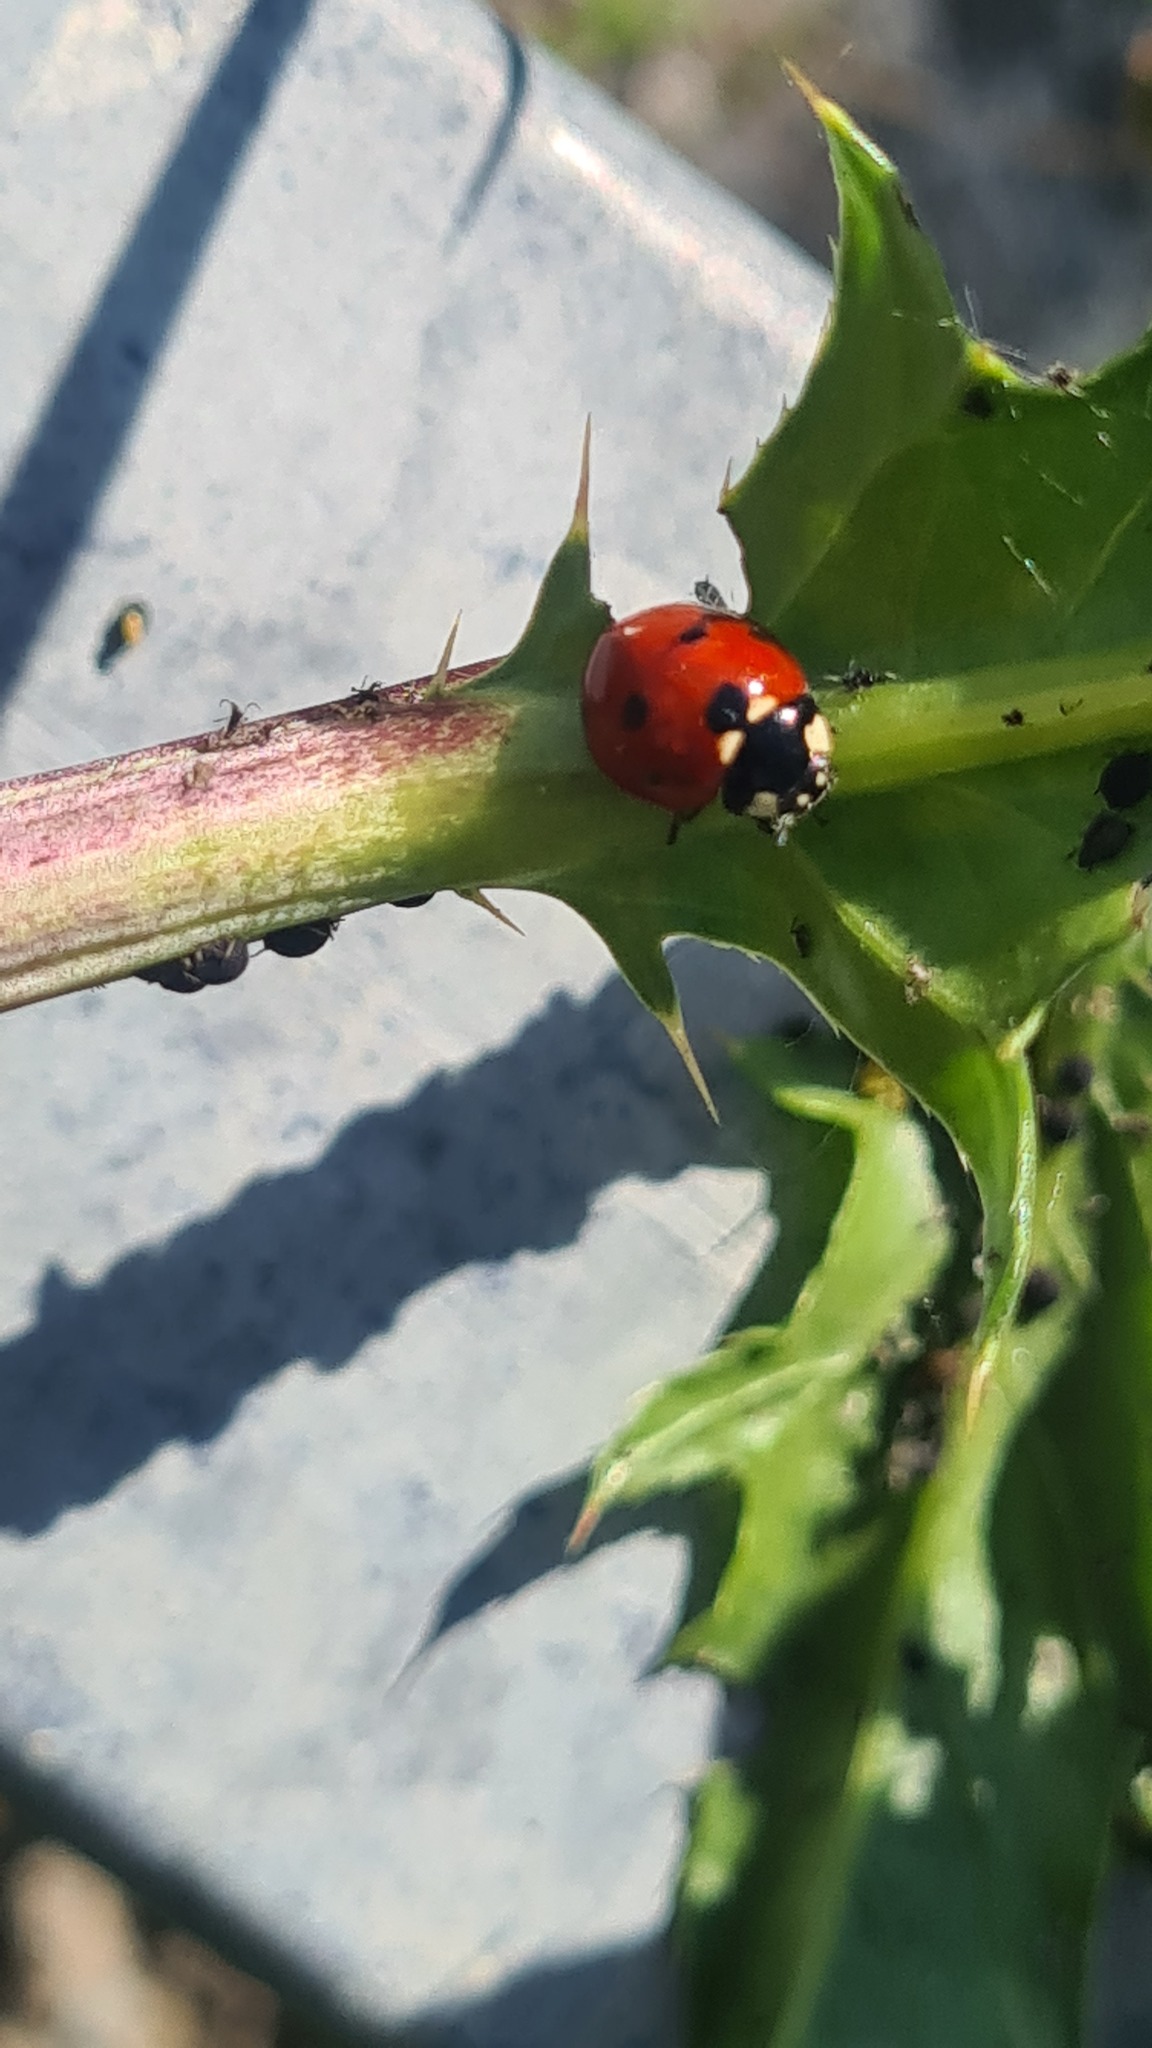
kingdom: Animalia
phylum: Arthropoda
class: Insecta
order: Coleoptera
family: Coccinellidae
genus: Coccinella
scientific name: Coccinella septempunctata
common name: Sevenspotted lady beetle
